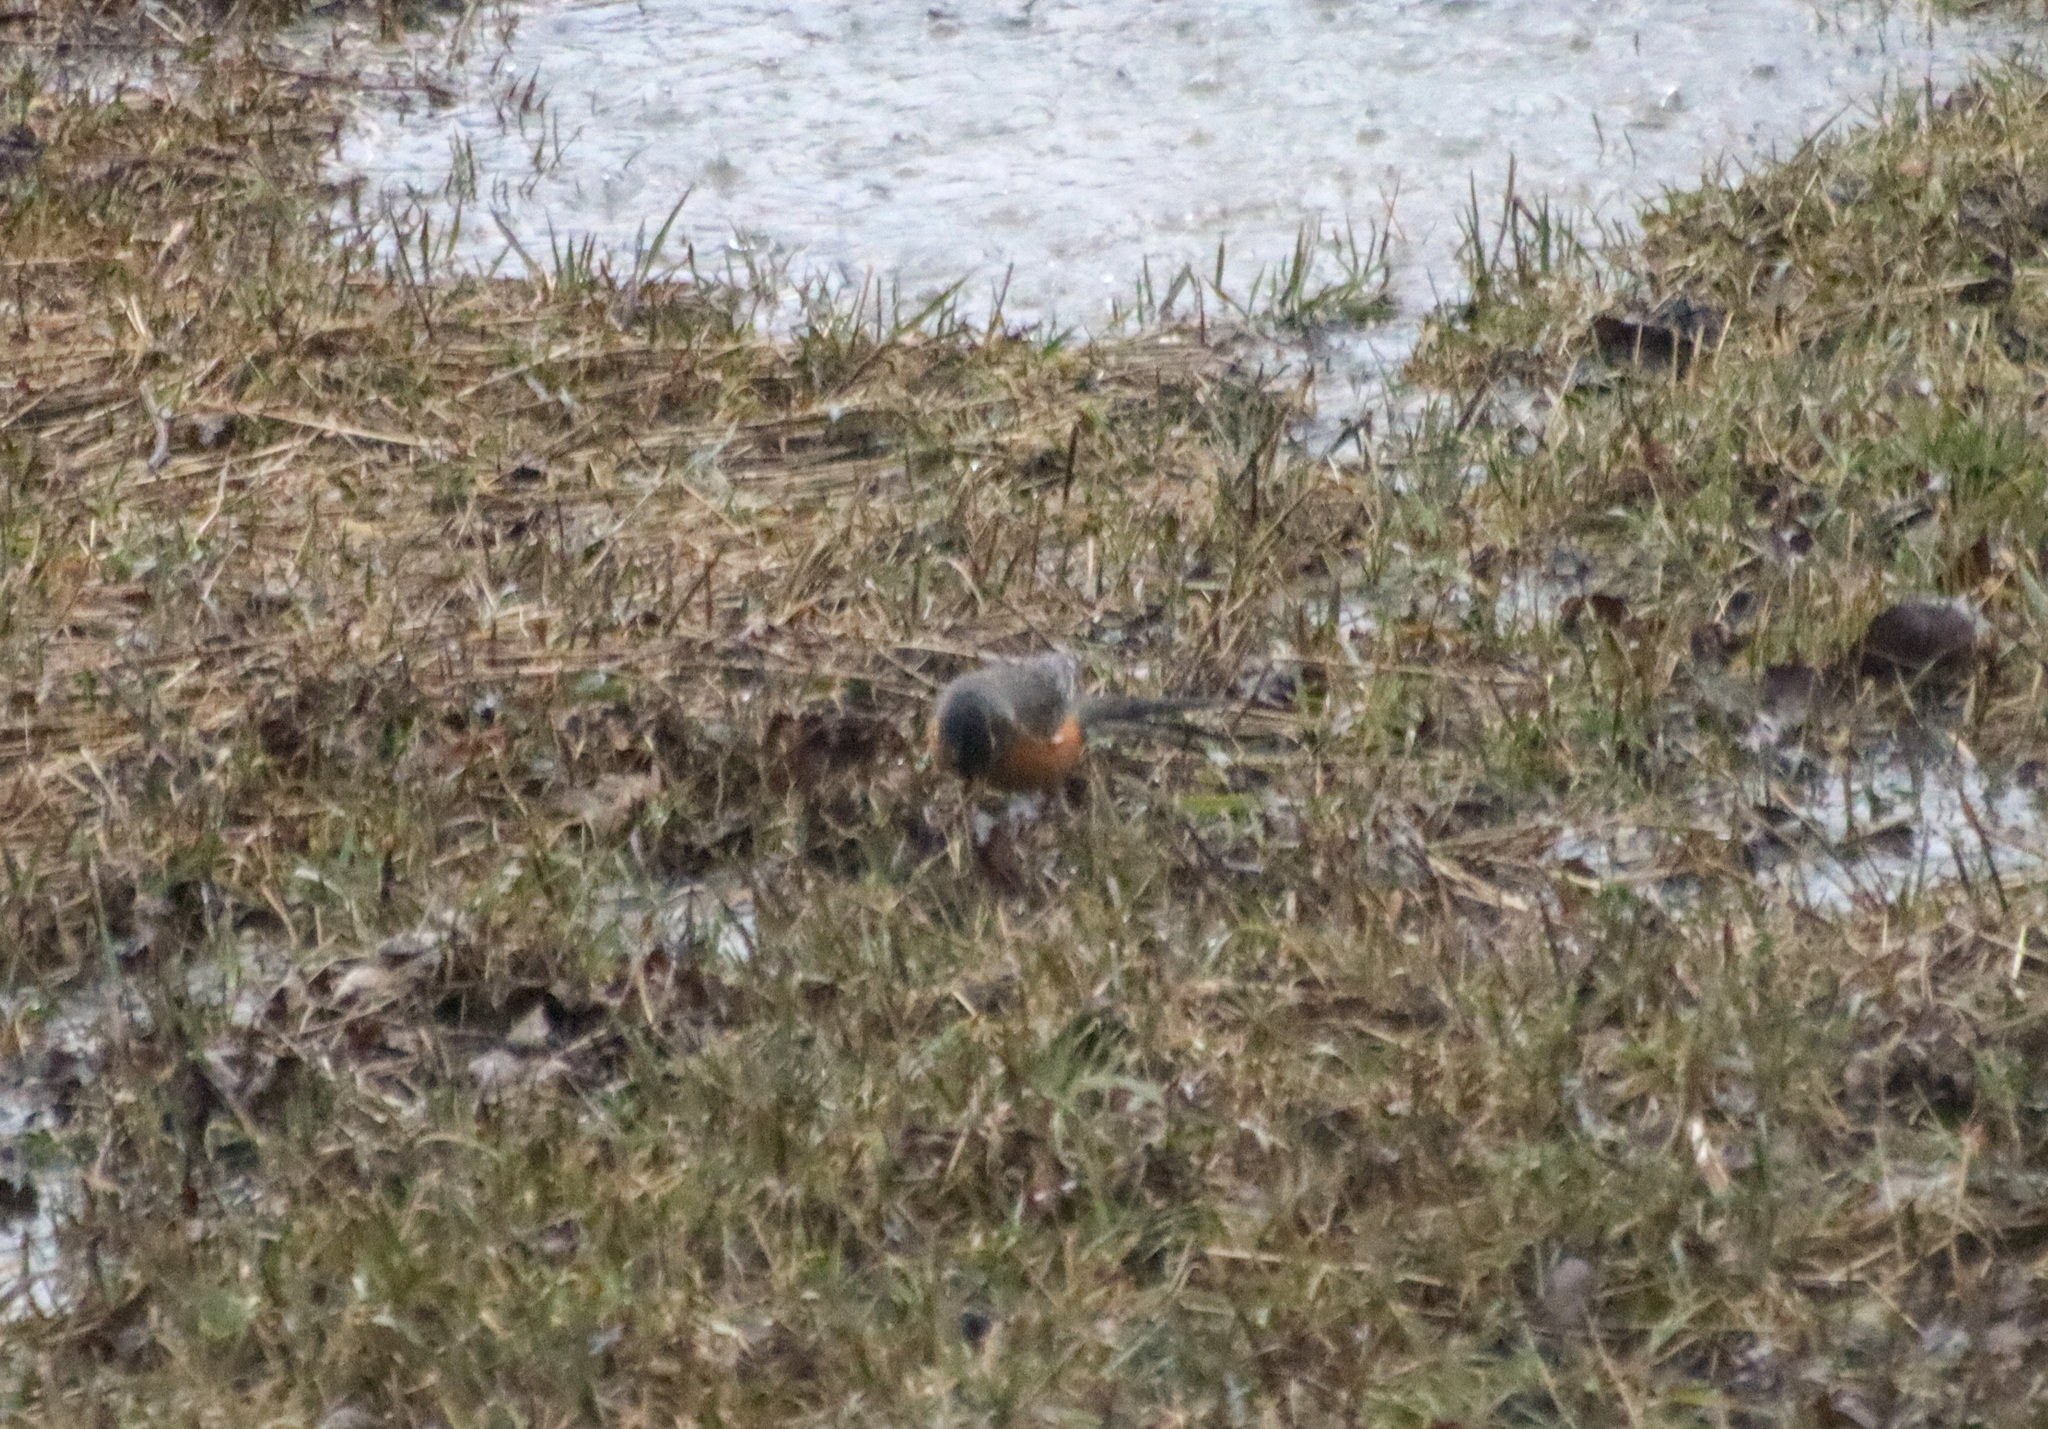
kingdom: Animalia
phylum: Chordata
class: Aves
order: Passeriformes
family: Turdidae
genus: Turdus
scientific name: Turdus migratorius
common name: American robin
